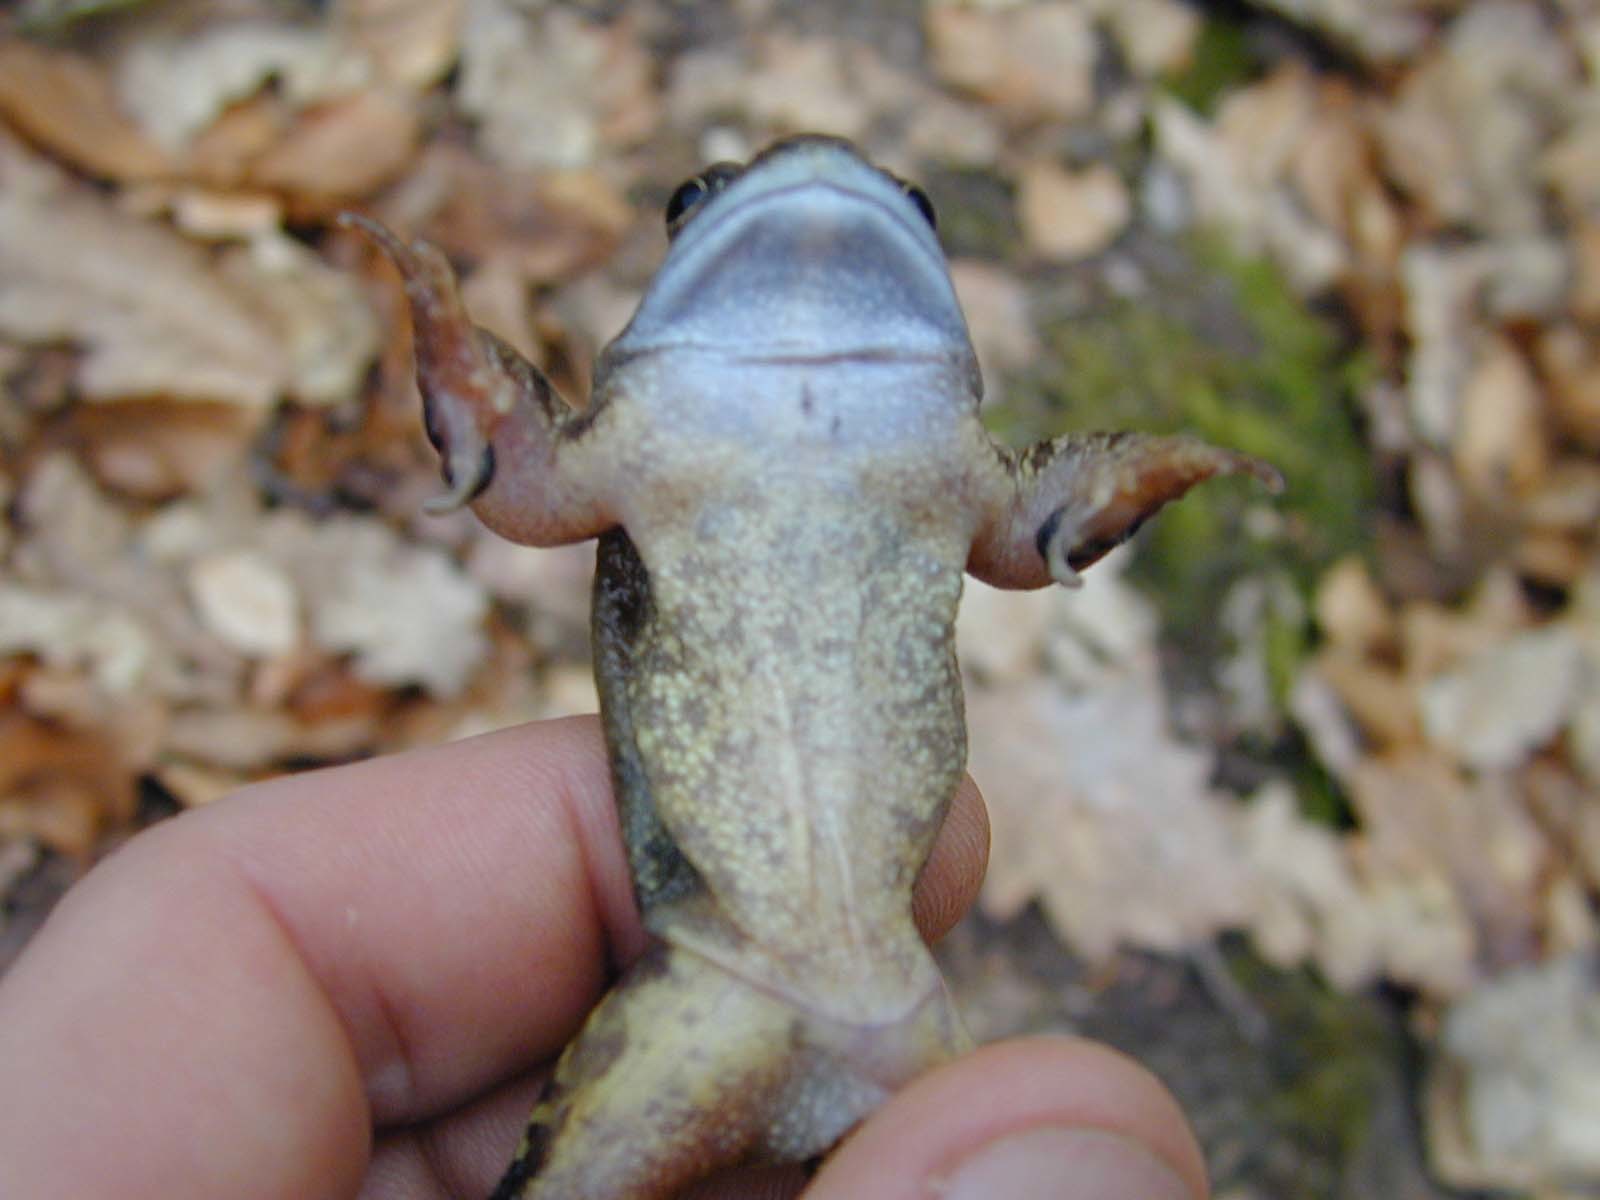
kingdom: Animalia
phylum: Chordata
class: Amphibia
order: Anura
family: Ranidae
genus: Rana
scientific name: Rana temporaria
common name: Common frog
